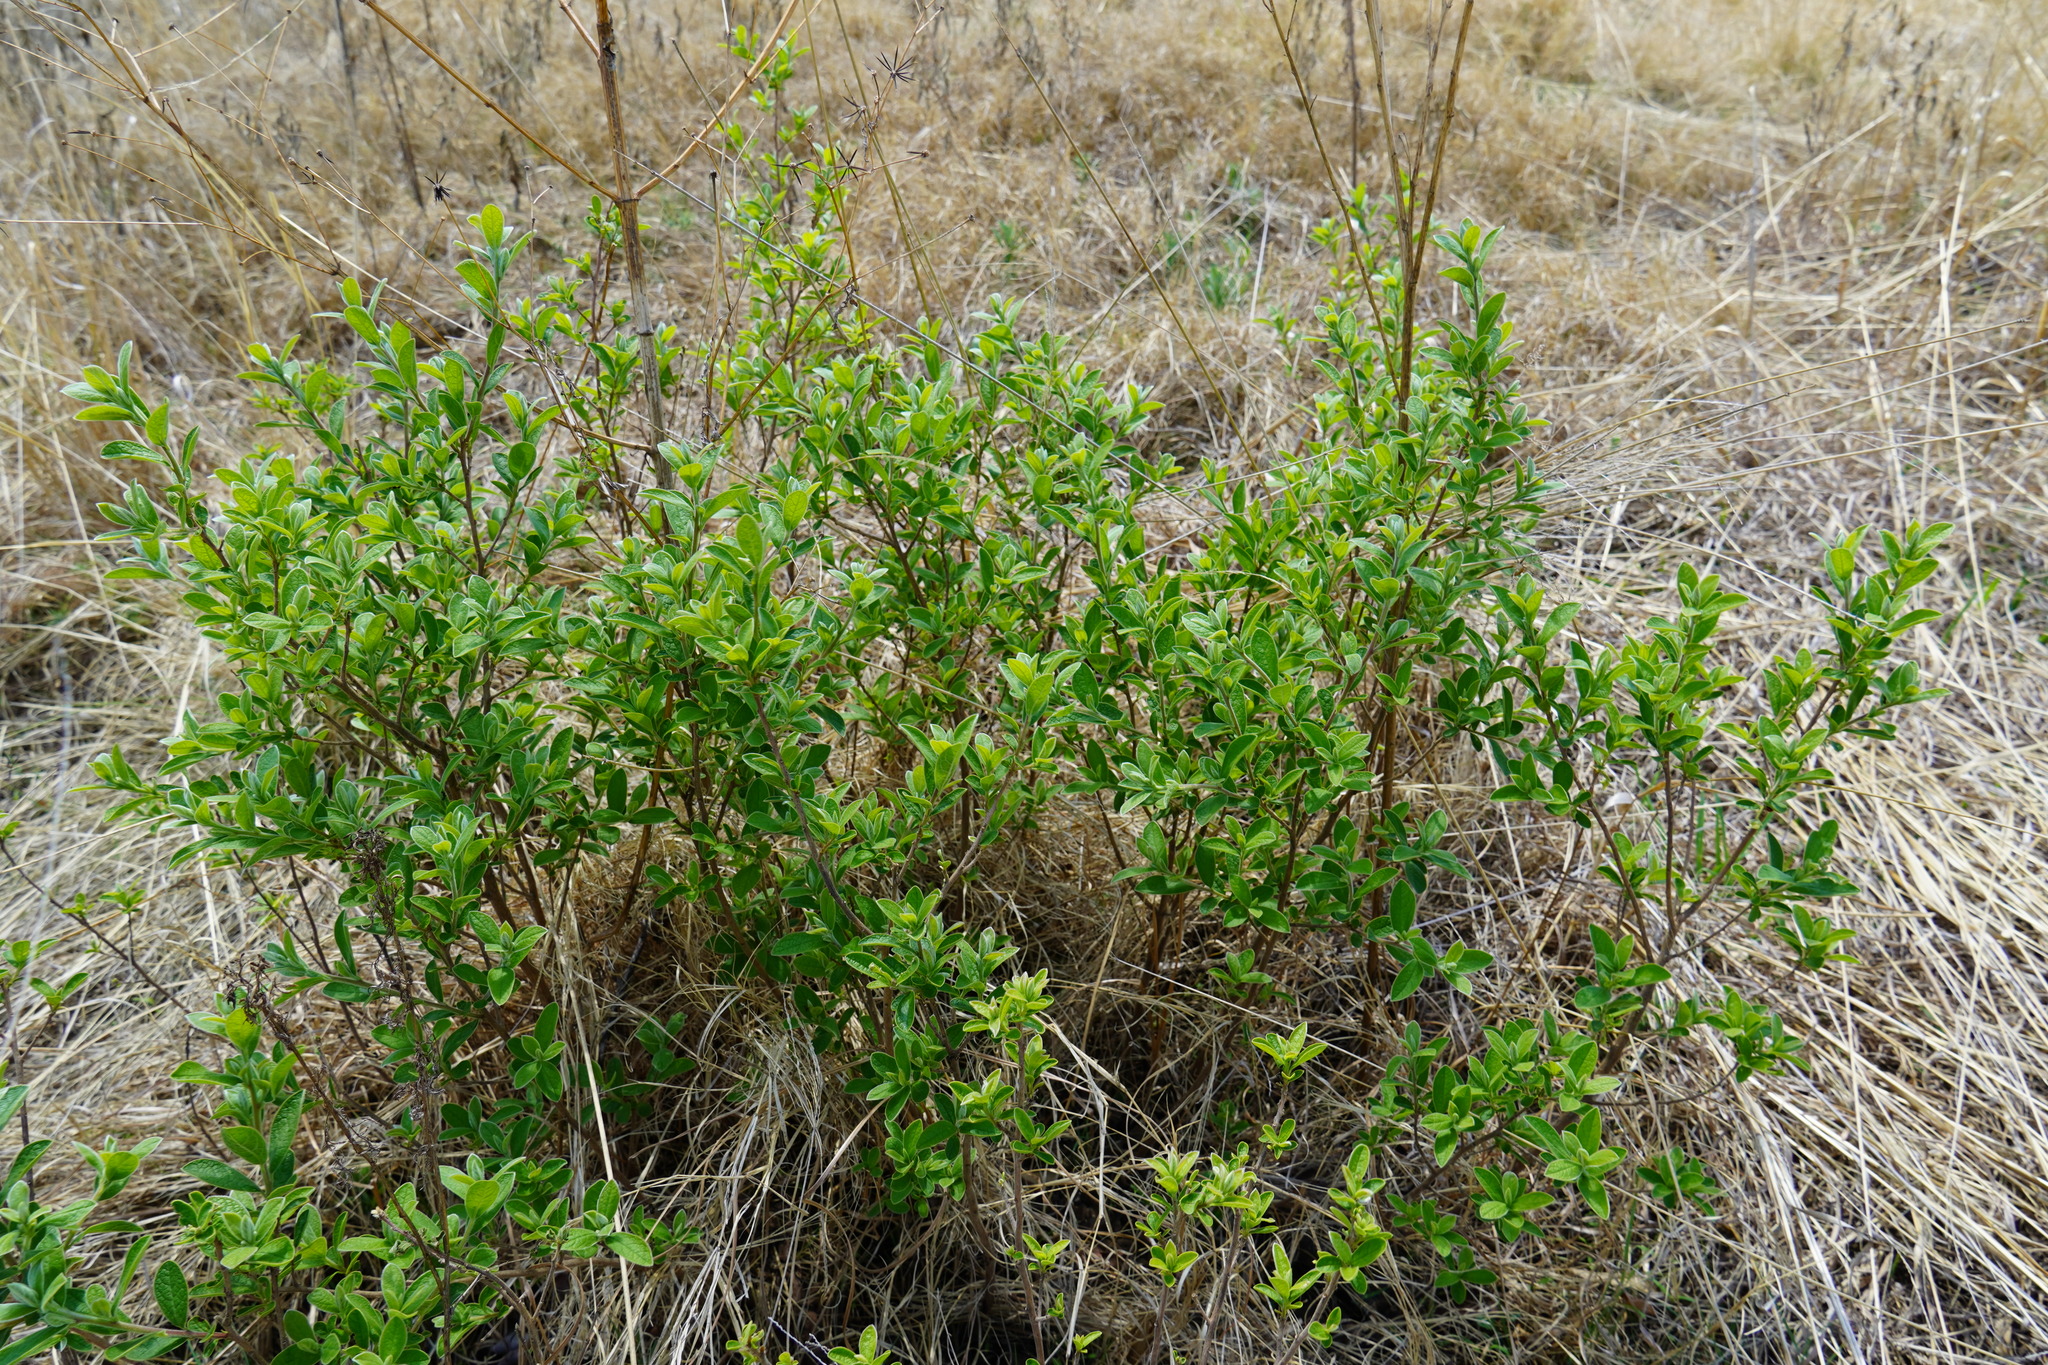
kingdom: Plantae
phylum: Tracheophyta
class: Magnoliopsida
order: Ericales
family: Ebenaceae
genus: Diospyros
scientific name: Diospyros lycioides
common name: Red star apple
